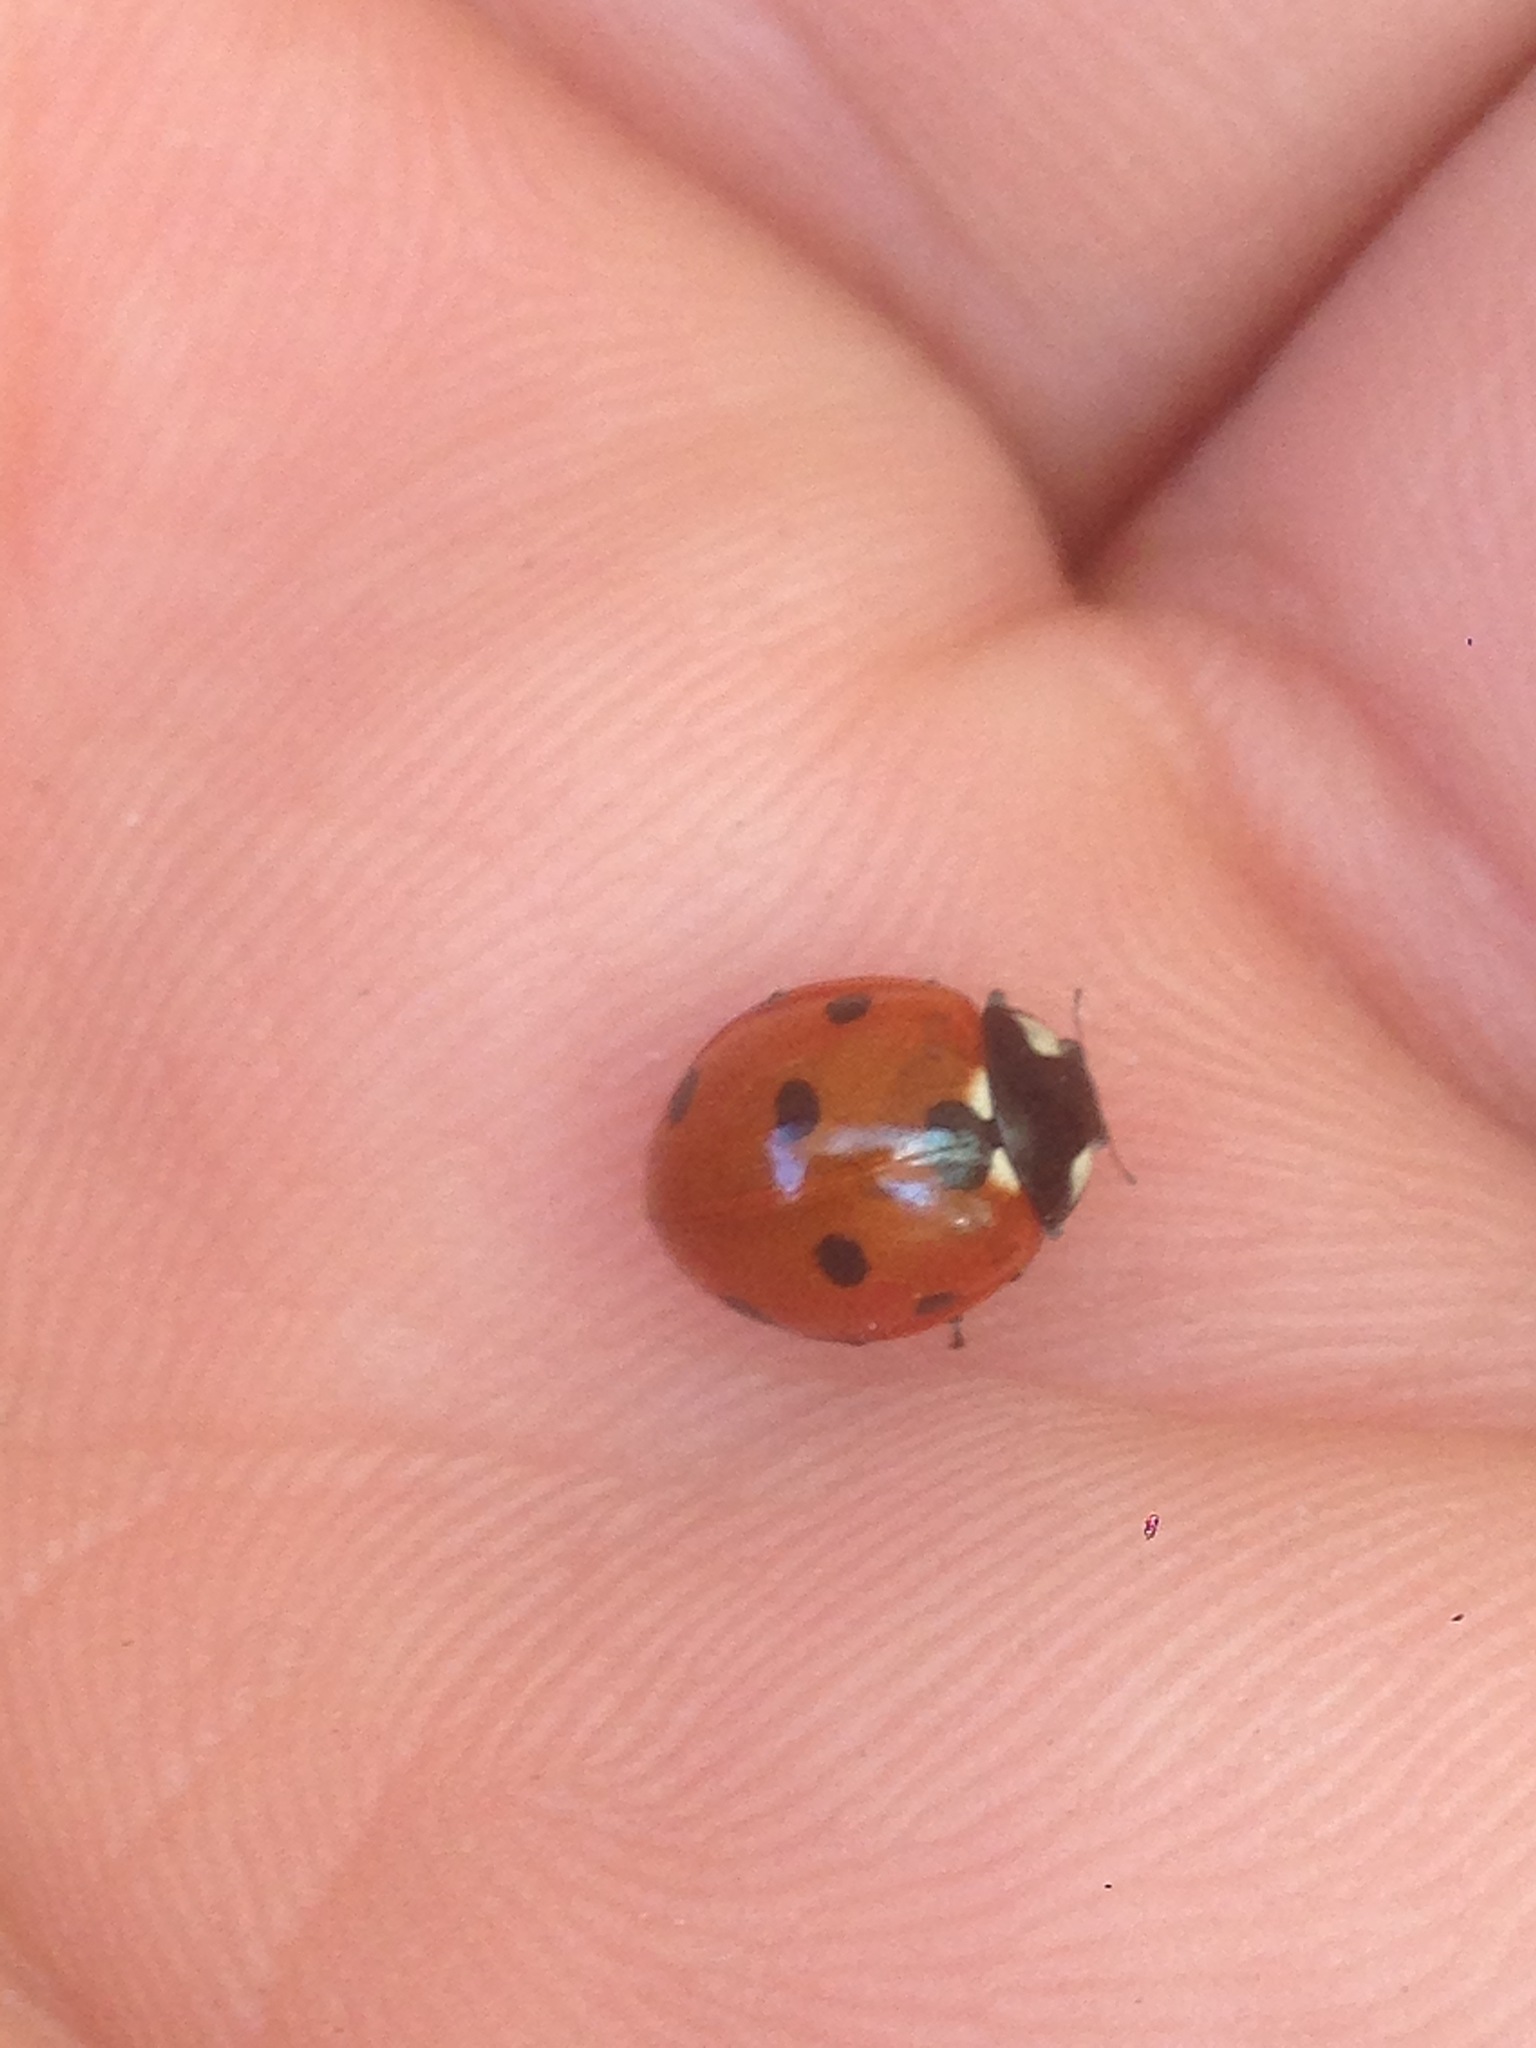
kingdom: Animalia
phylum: Arthropoda
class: Insecta
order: Coleoptera
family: Coccinellidae
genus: Coccinella
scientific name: Coccinella septempunctata
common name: Sevenspotted lady beetle
